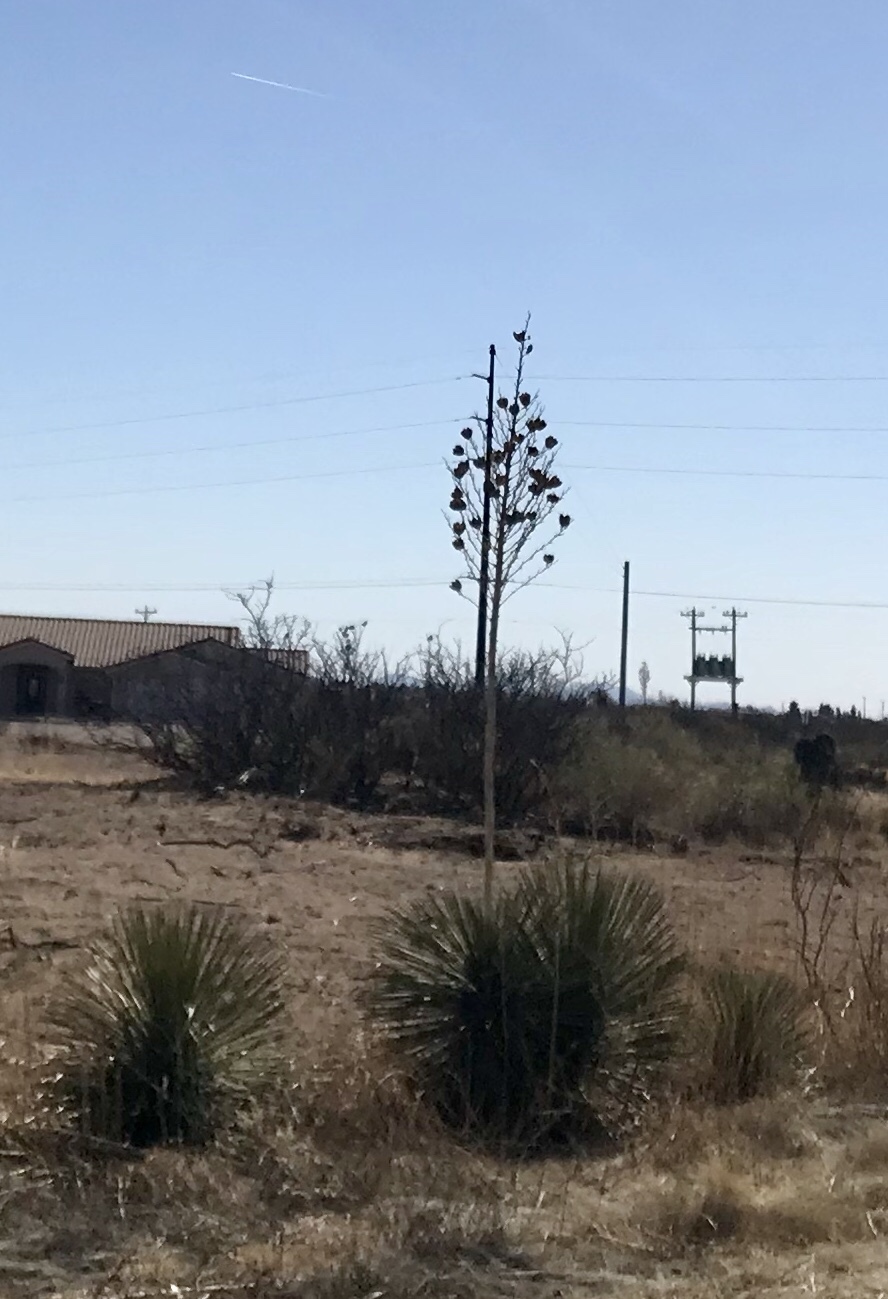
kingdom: Plantae
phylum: Tracheophyta
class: Liliopsida
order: Asparagales
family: Asparagaceae
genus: Yucca
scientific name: Yucca elata
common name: Palmella
